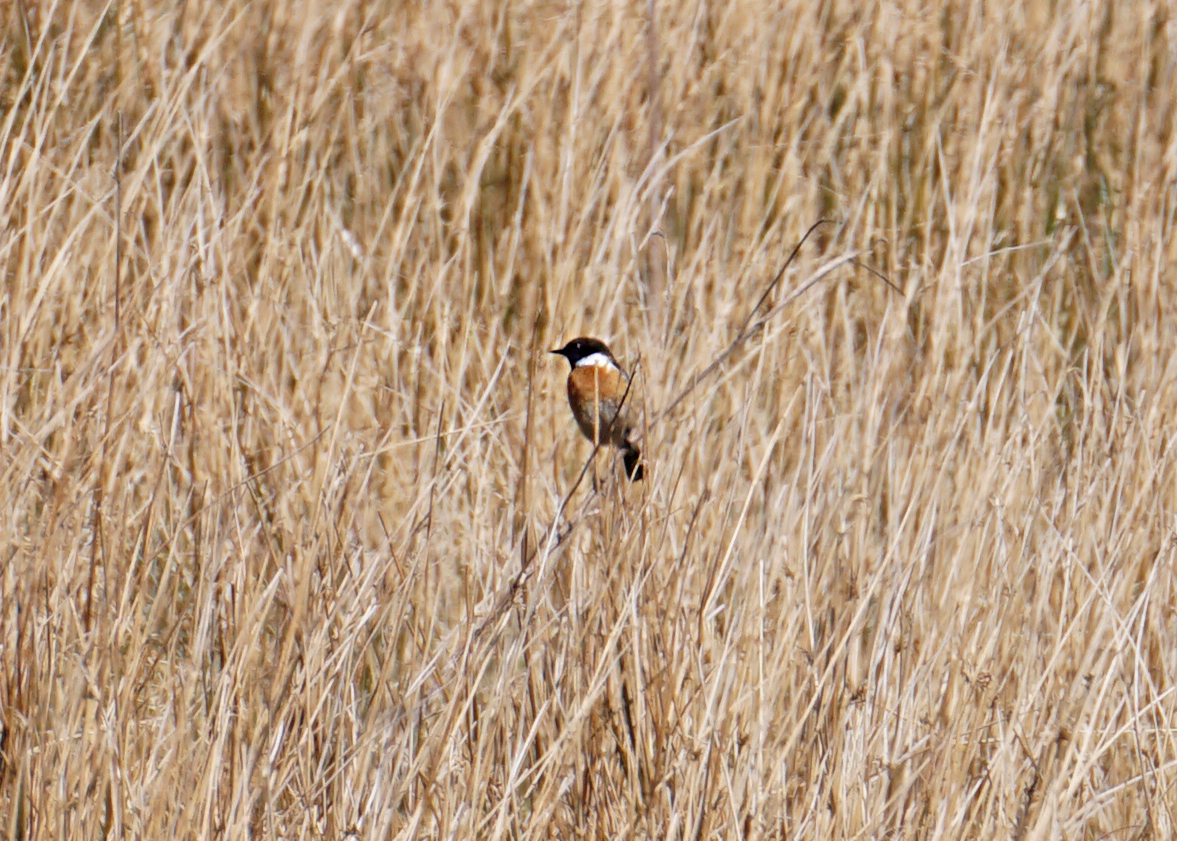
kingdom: Animalia
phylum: Chordata
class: Aves
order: Passeriformes
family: Muscicapidae
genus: Saxicola
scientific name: Saxicola rubicola
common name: European stonechat
